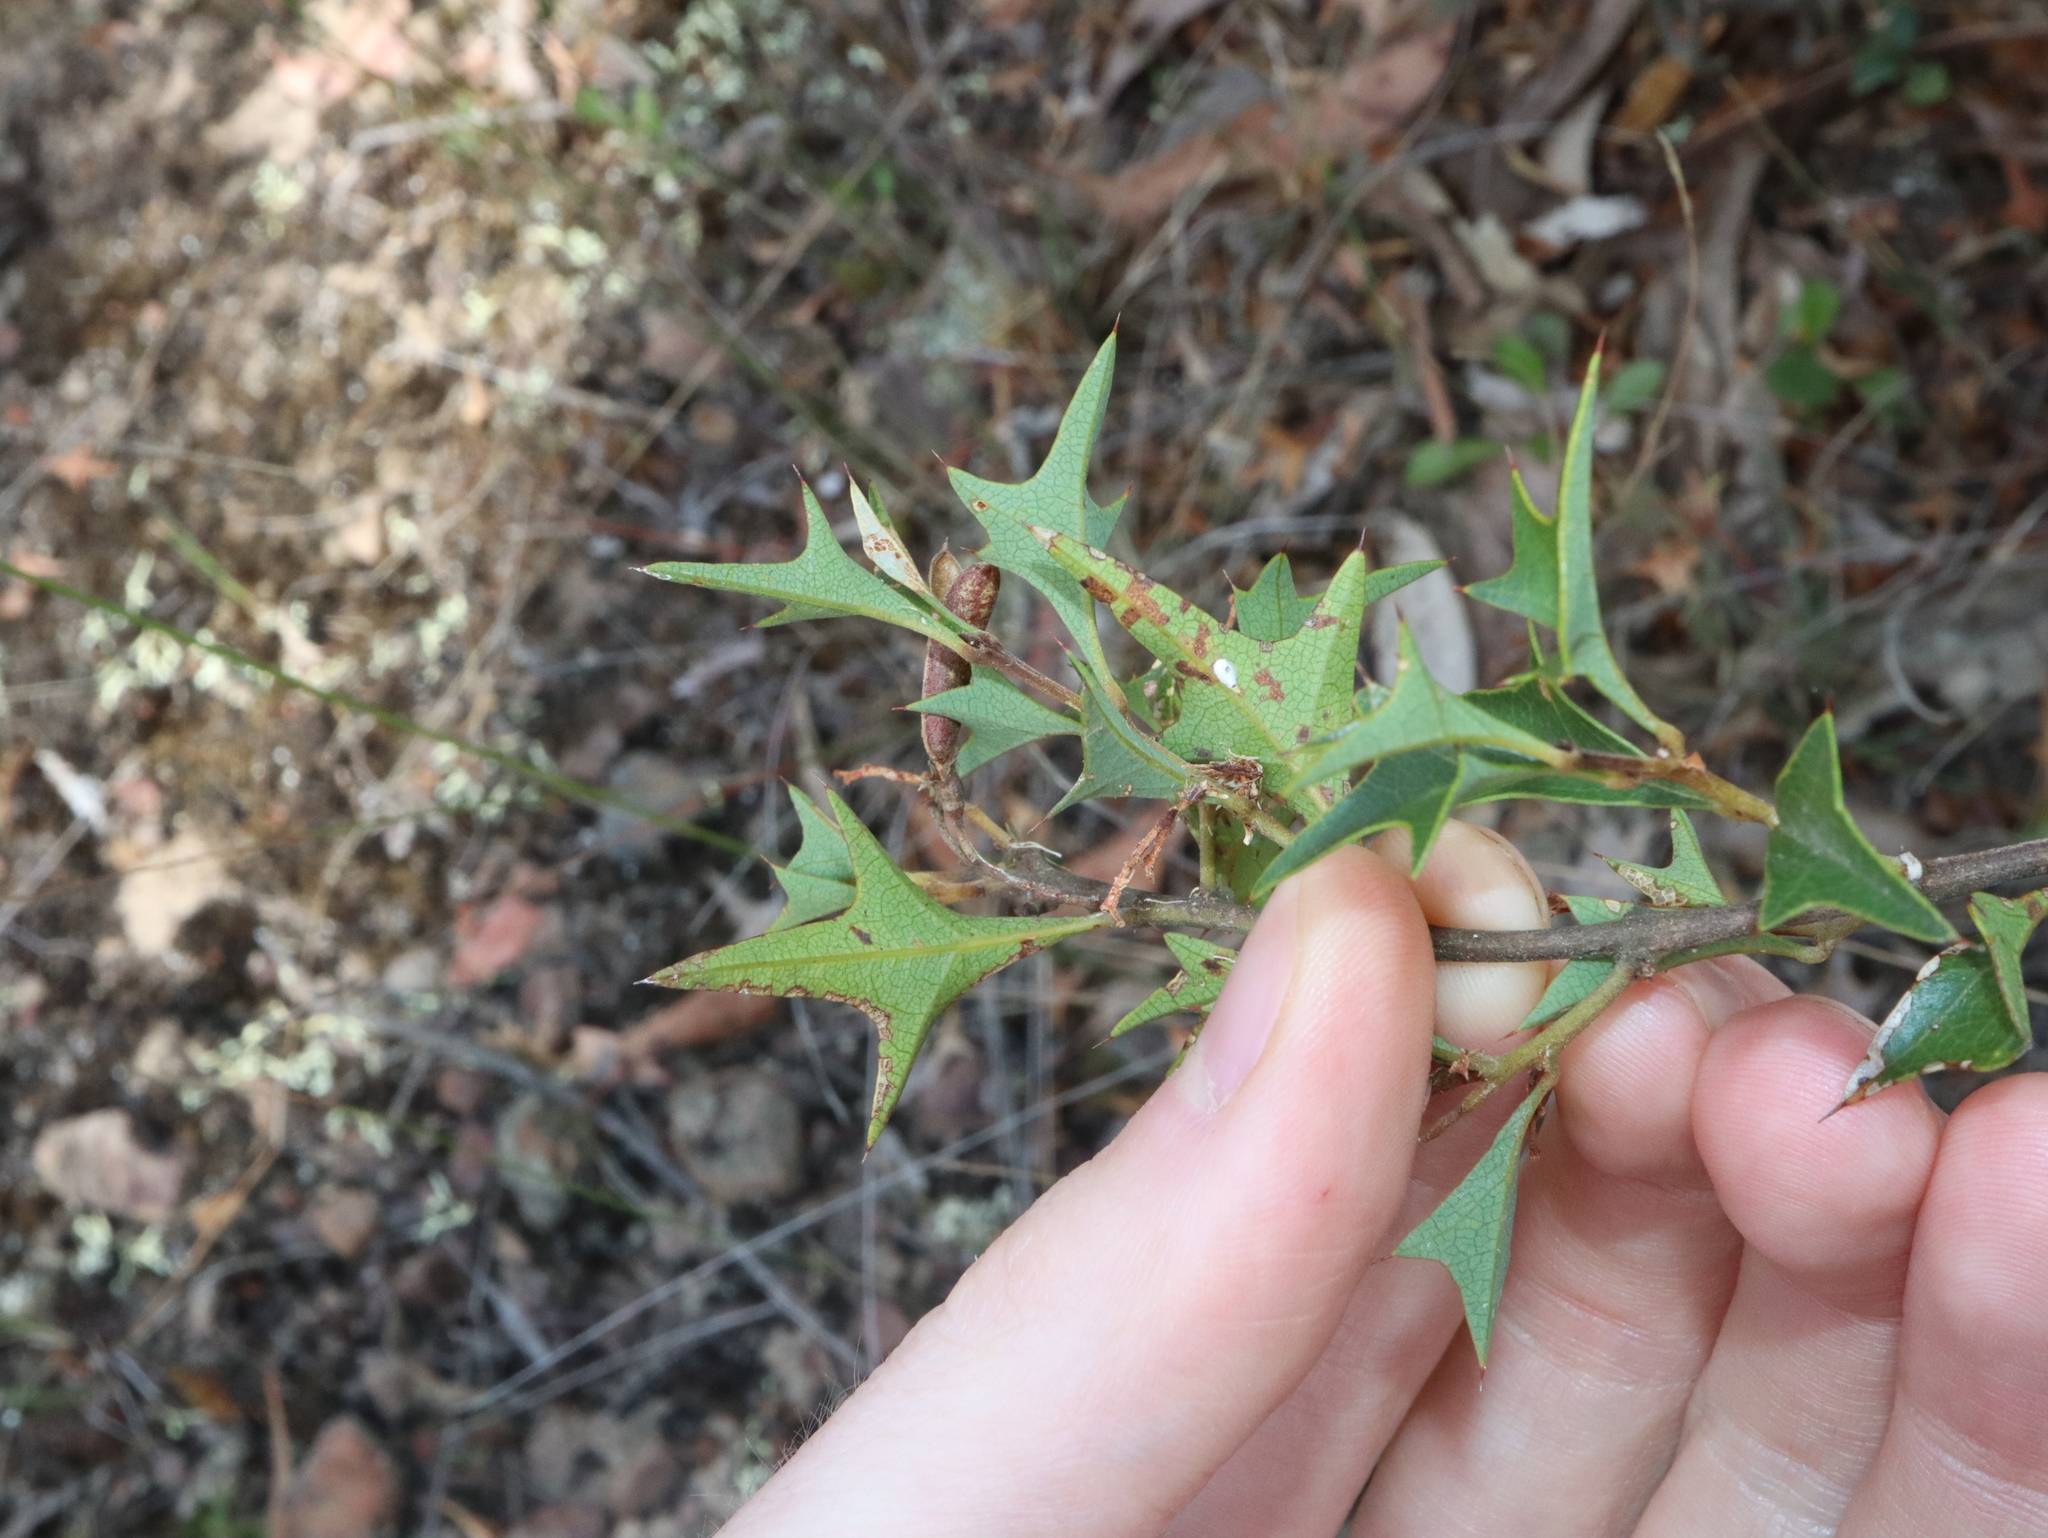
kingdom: Plantae
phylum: Tracheophyta
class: Magnoliopsida
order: Fabales
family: Fabaceae
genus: Podolobium
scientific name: Podolobium ilicifolium
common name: Native holly
